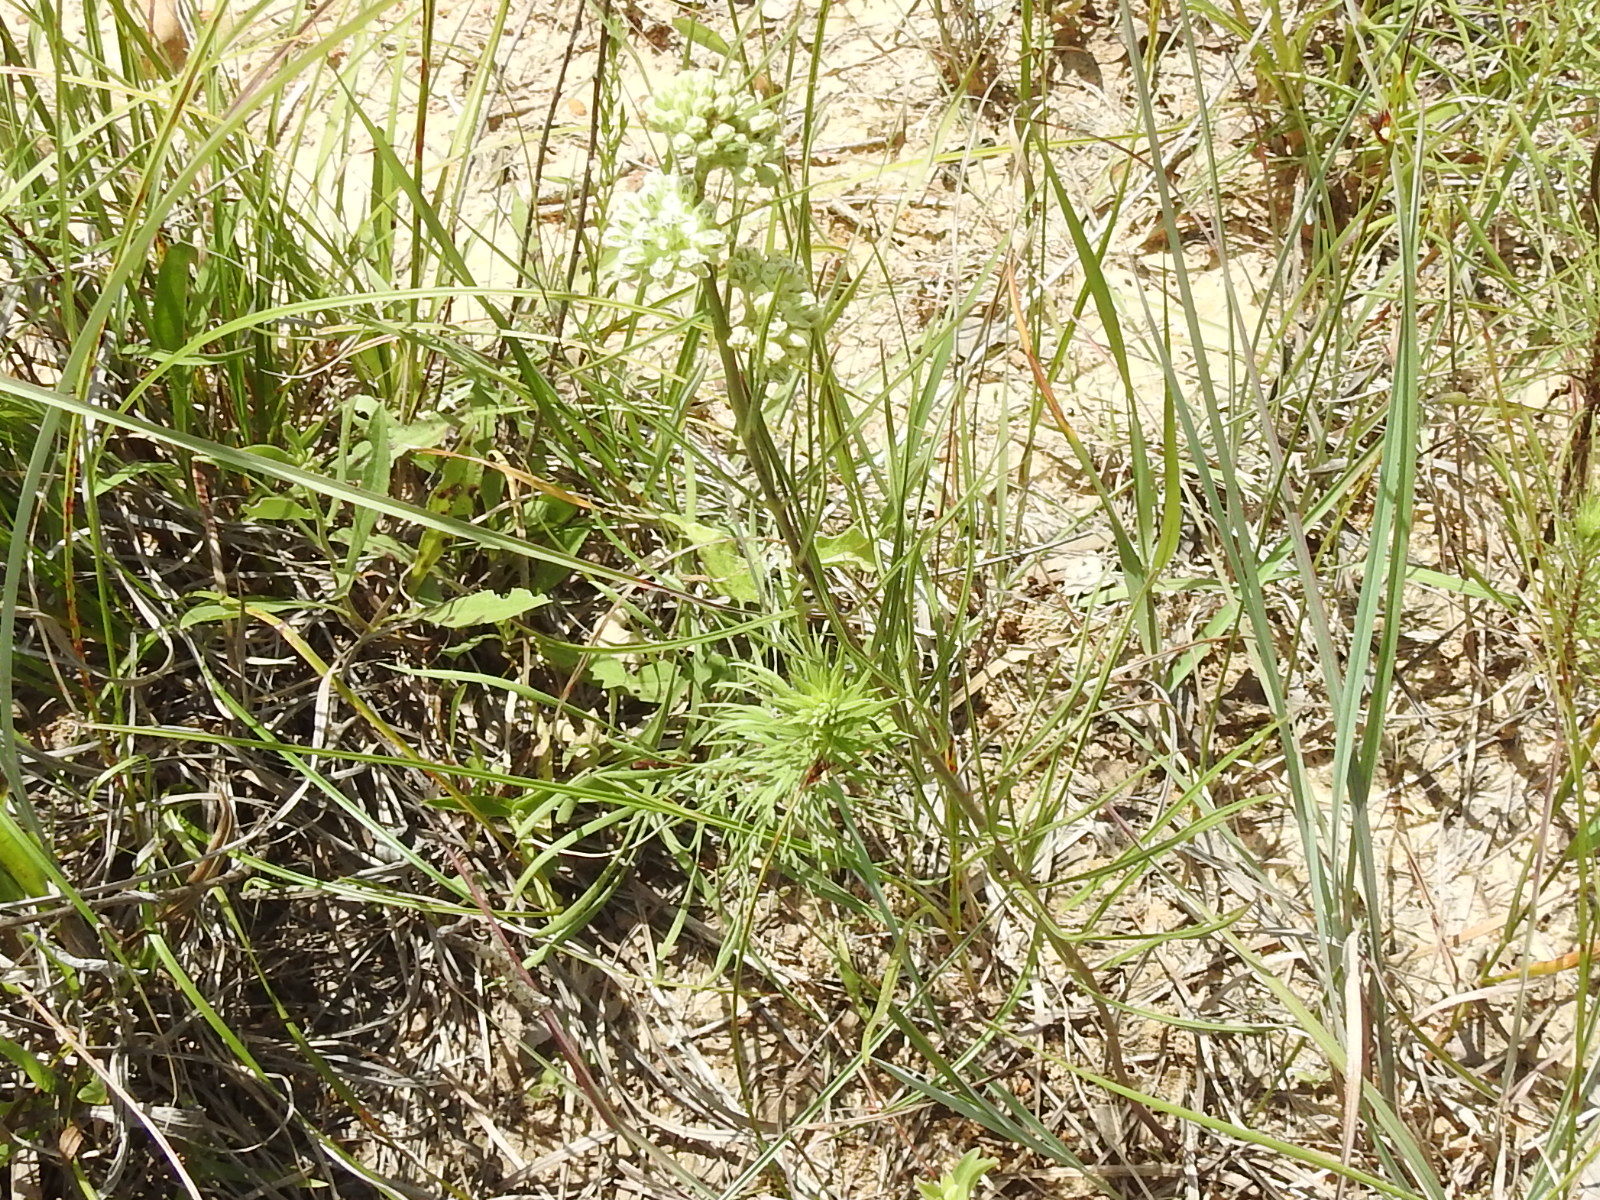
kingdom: Plantae
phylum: Tracheophyta
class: Magnoliopsida
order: Gentianales
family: Apocynaceae
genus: Asclepias
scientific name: Asclepias stenophylla
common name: Narrow-leaf milkweed
